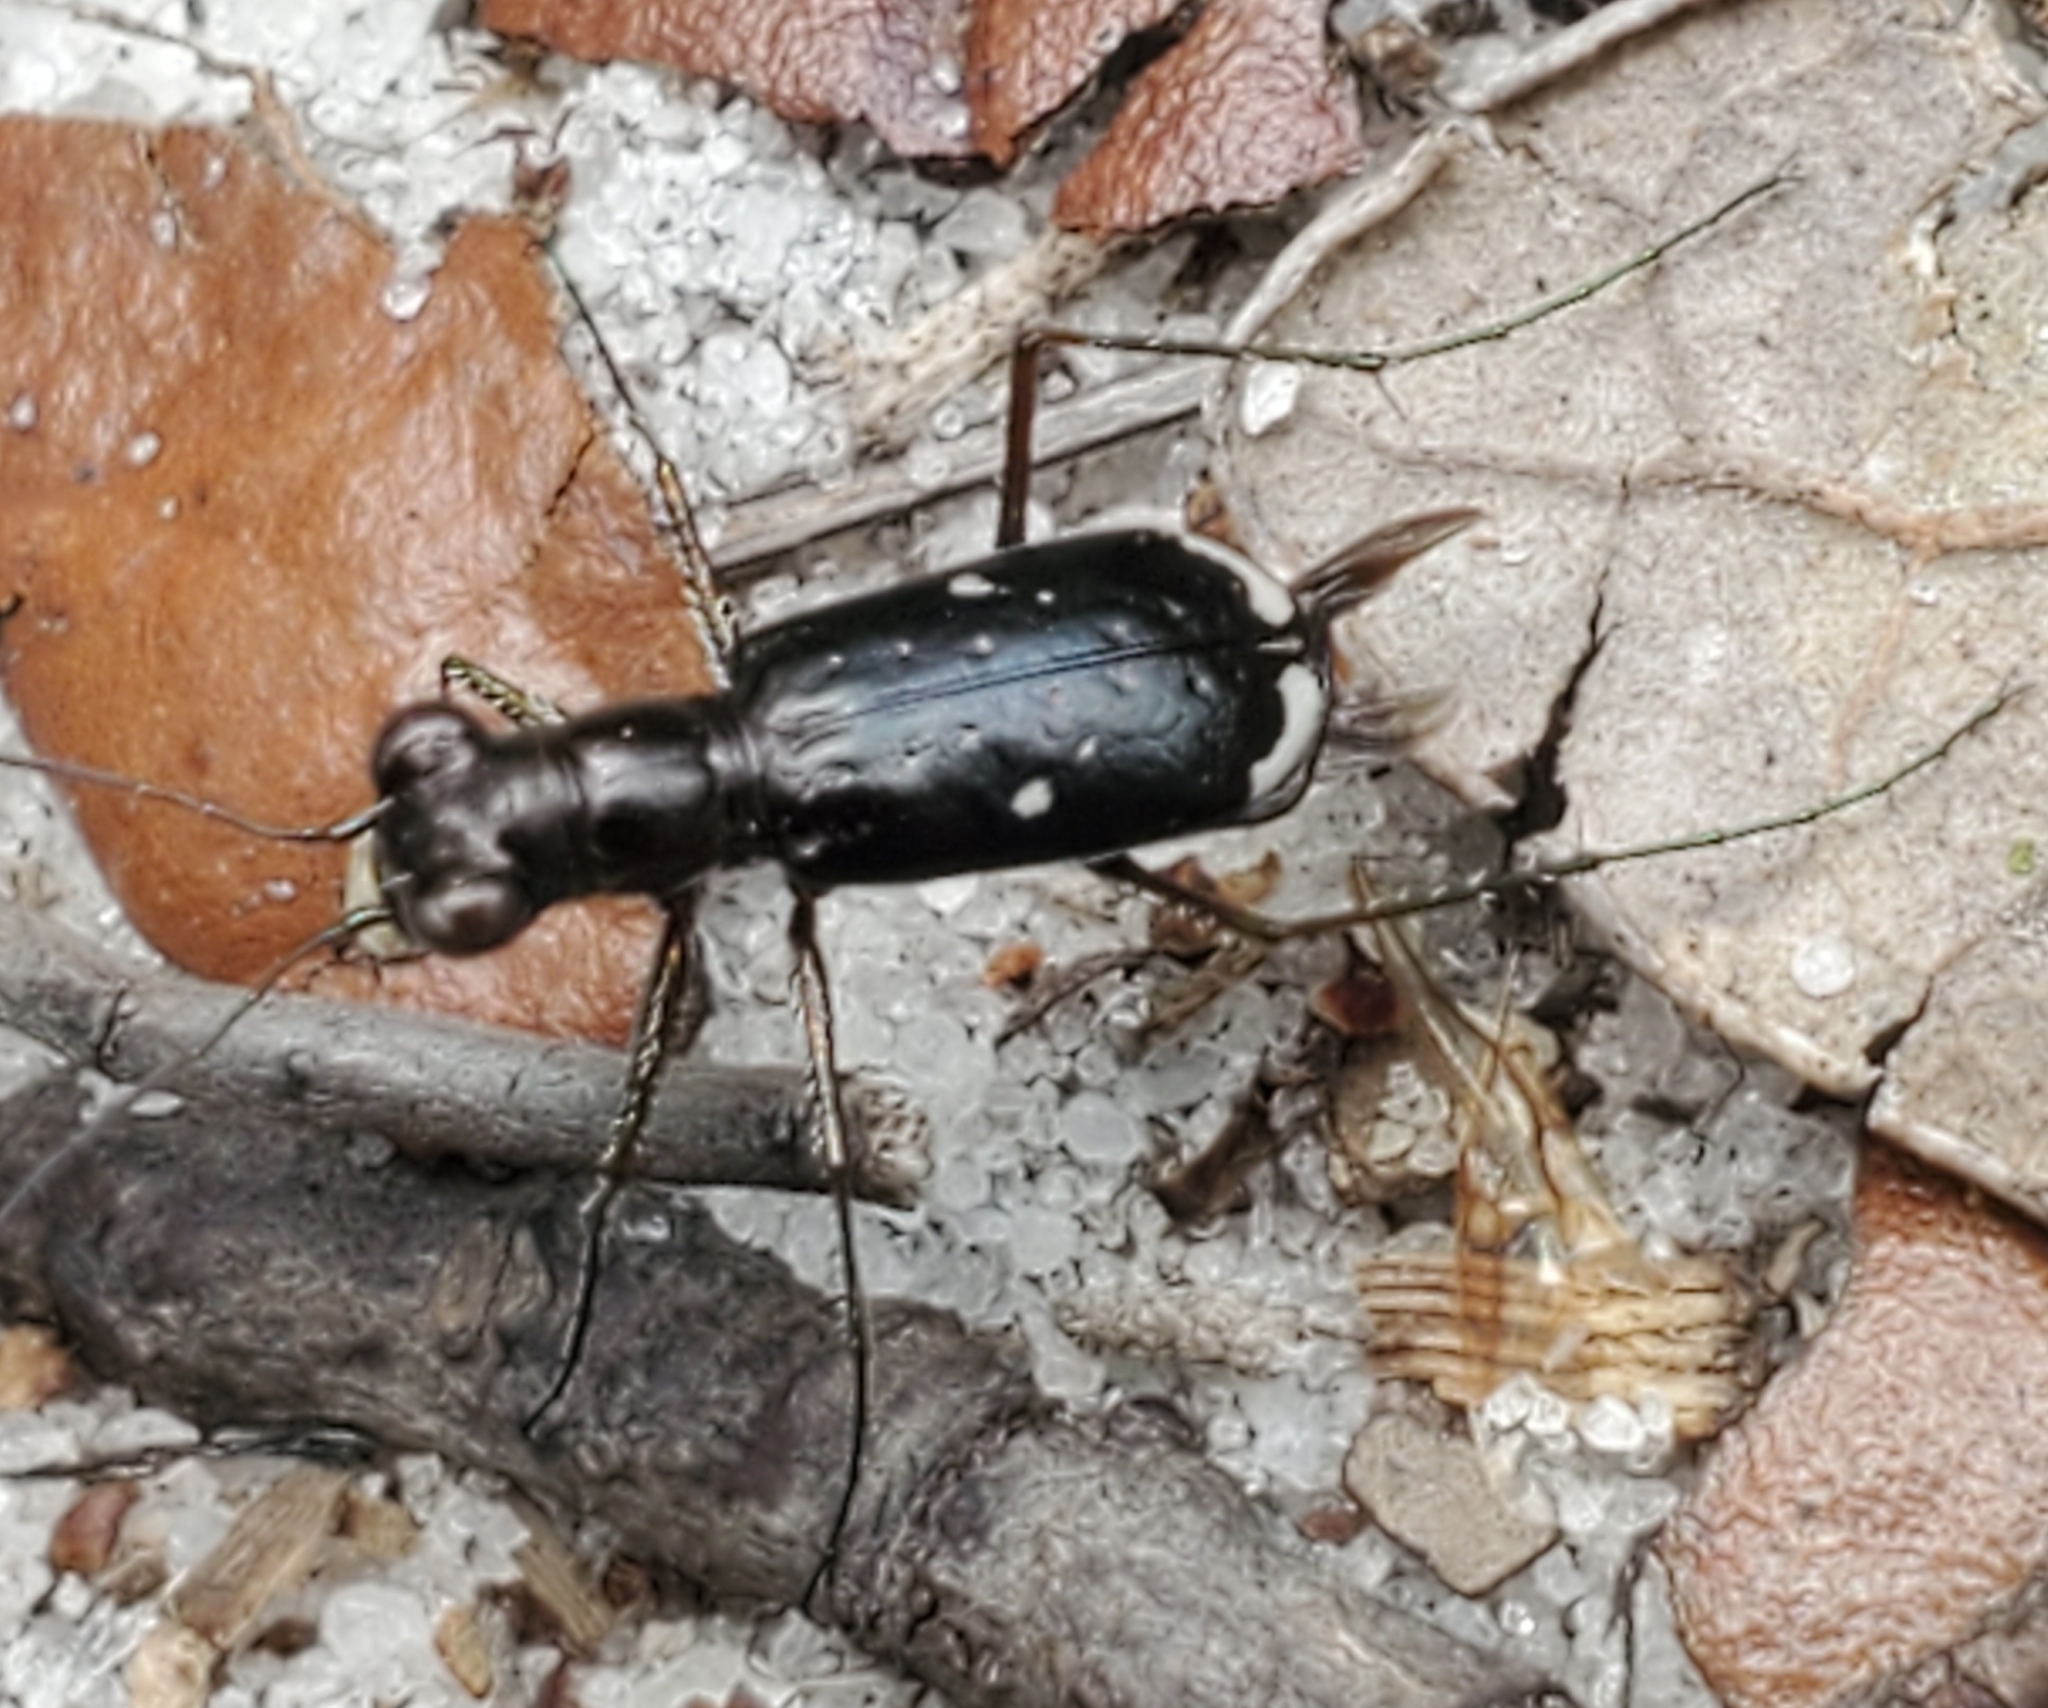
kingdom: Animalia
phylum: Arthropoda
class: Insecta
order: Coleoptera
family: Carabidae
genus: Cicindela
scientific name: Cicindela abdominalis
